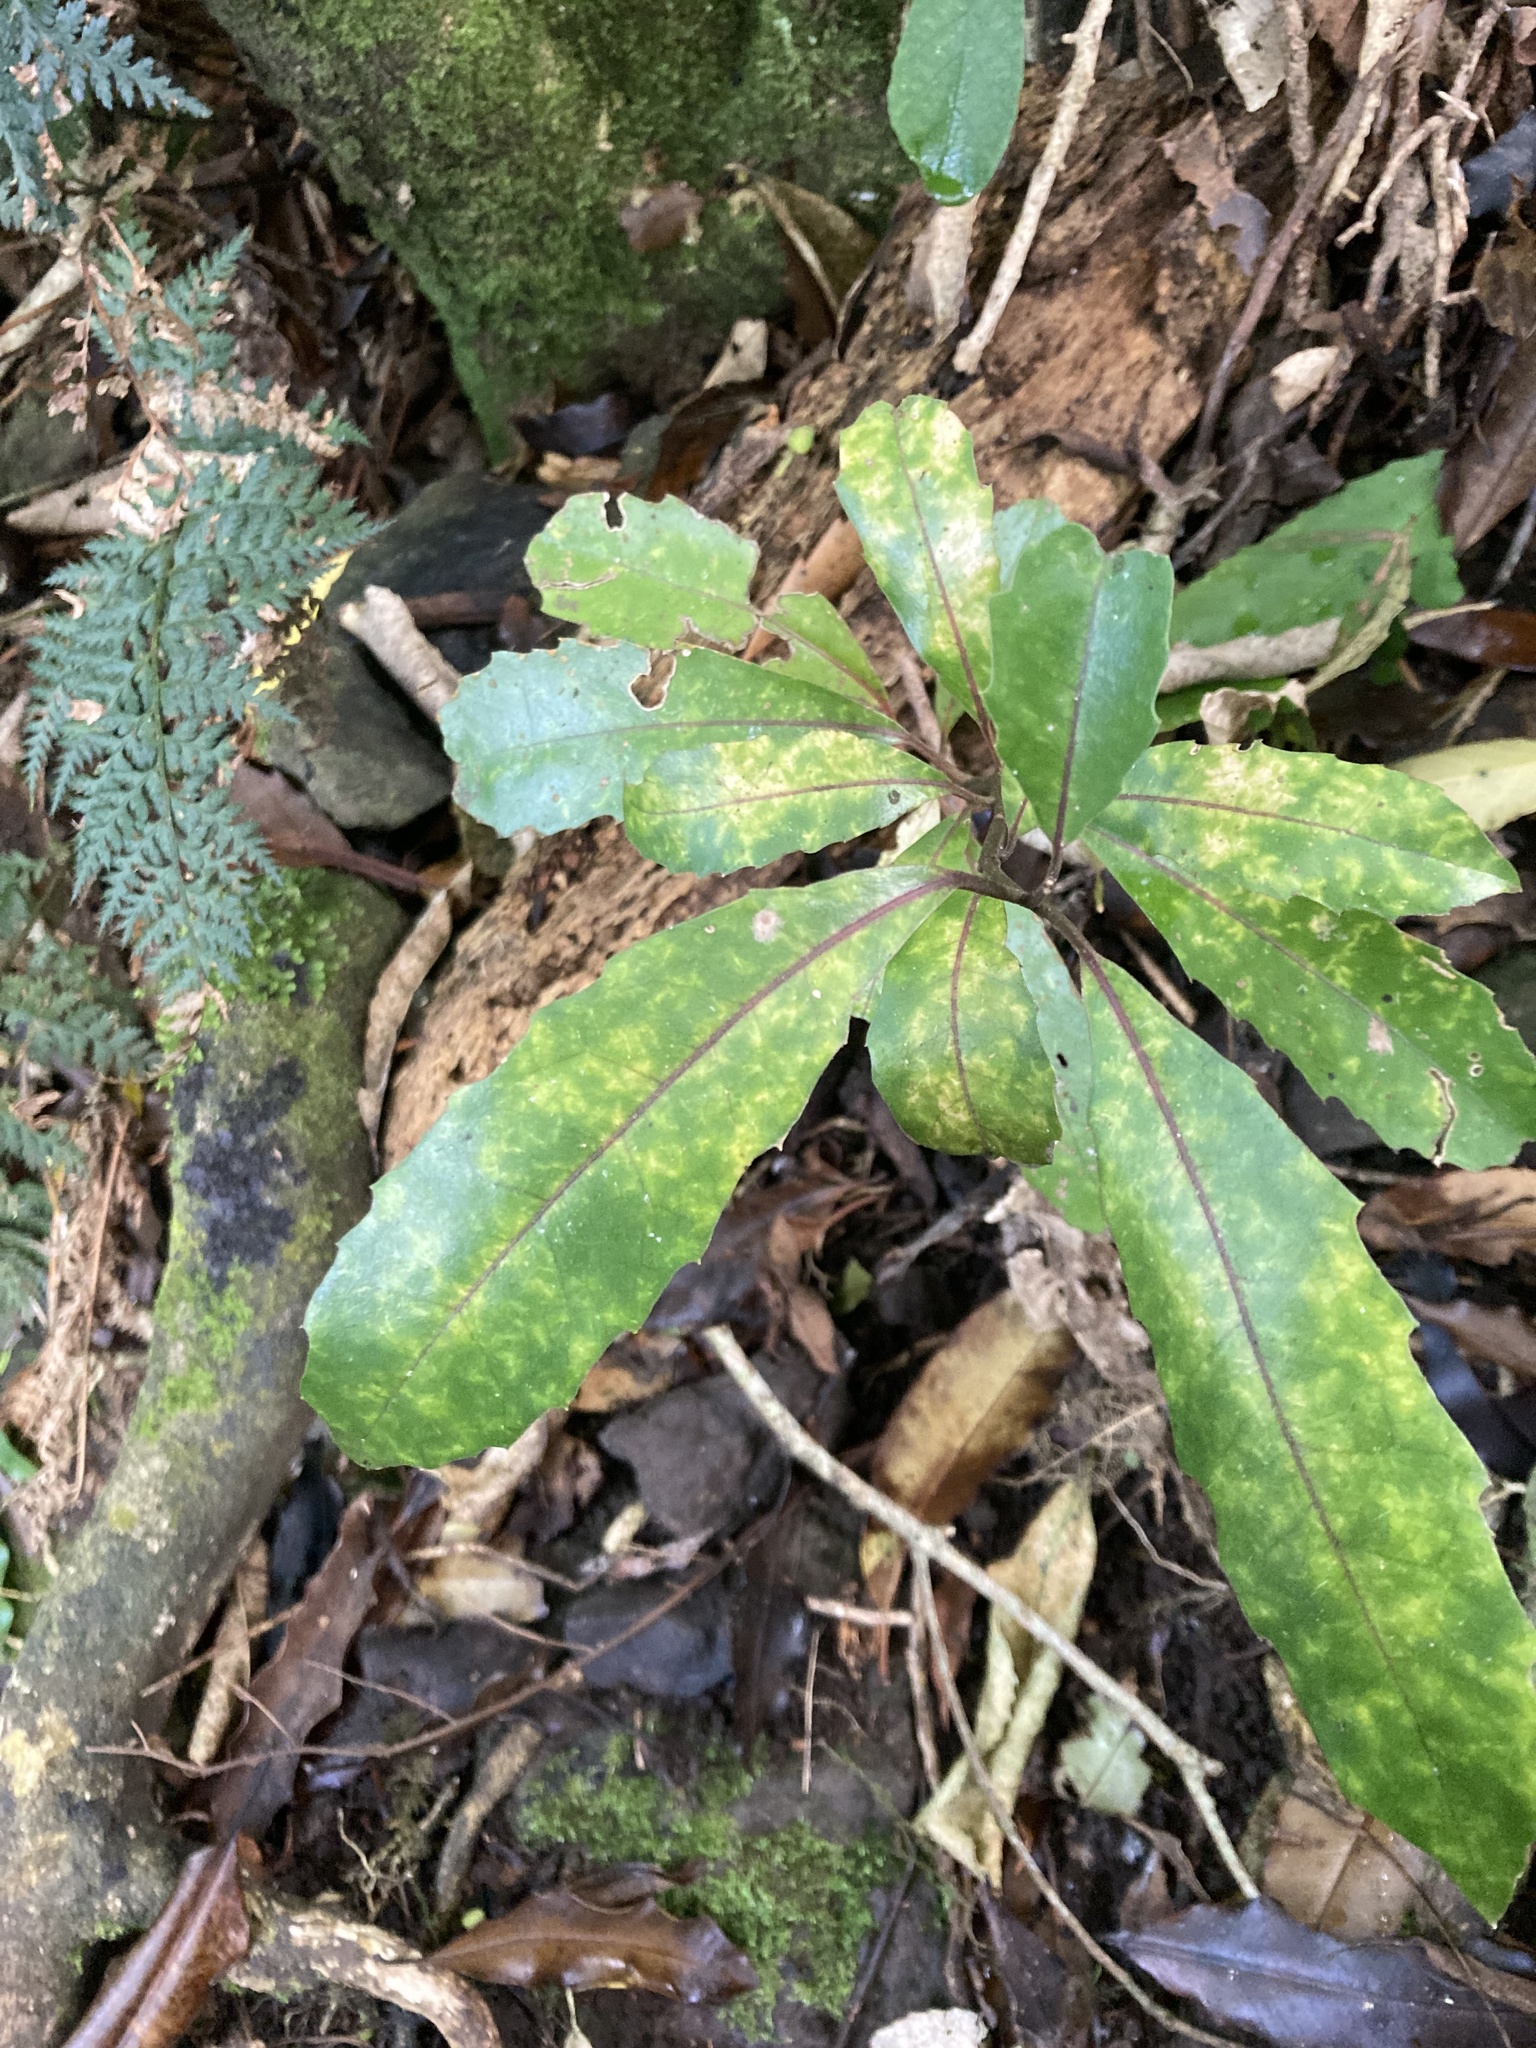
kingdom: Plantae
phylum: Tracheophyta
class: Magnoliopsida
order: Laurales
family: Monimiaceae
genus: Hedycarya
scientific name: Hedycarya arborea
